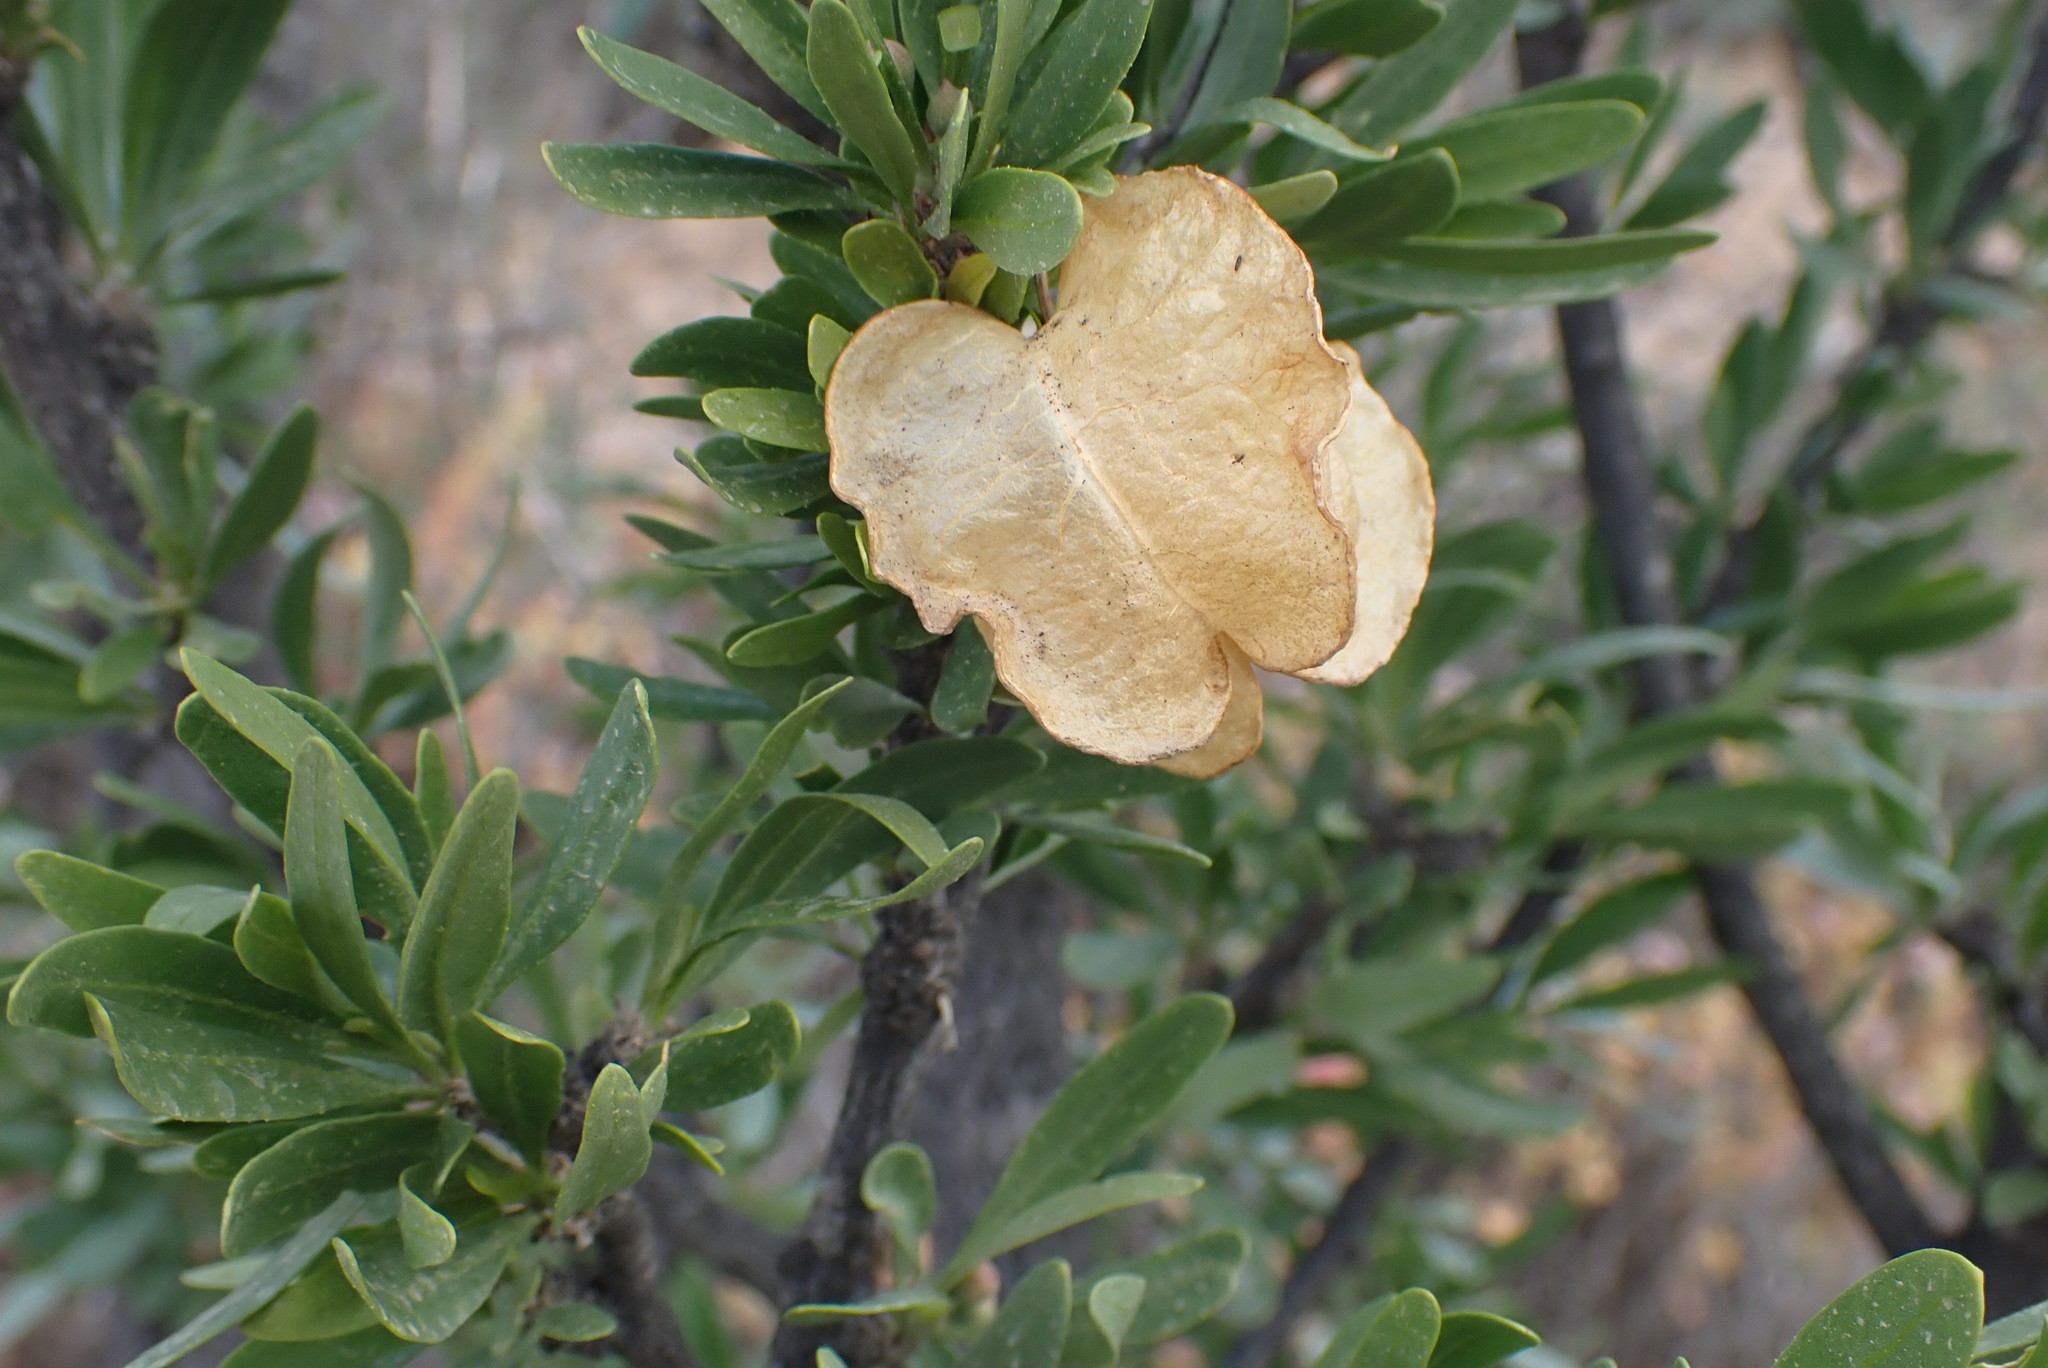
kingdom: Plantae
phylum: Tracheophyta
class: Magnoliopsida
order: Sapindales
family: Meliaceae
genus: Nymania
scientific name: Nymania capensis
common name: Chinese lantern tree
